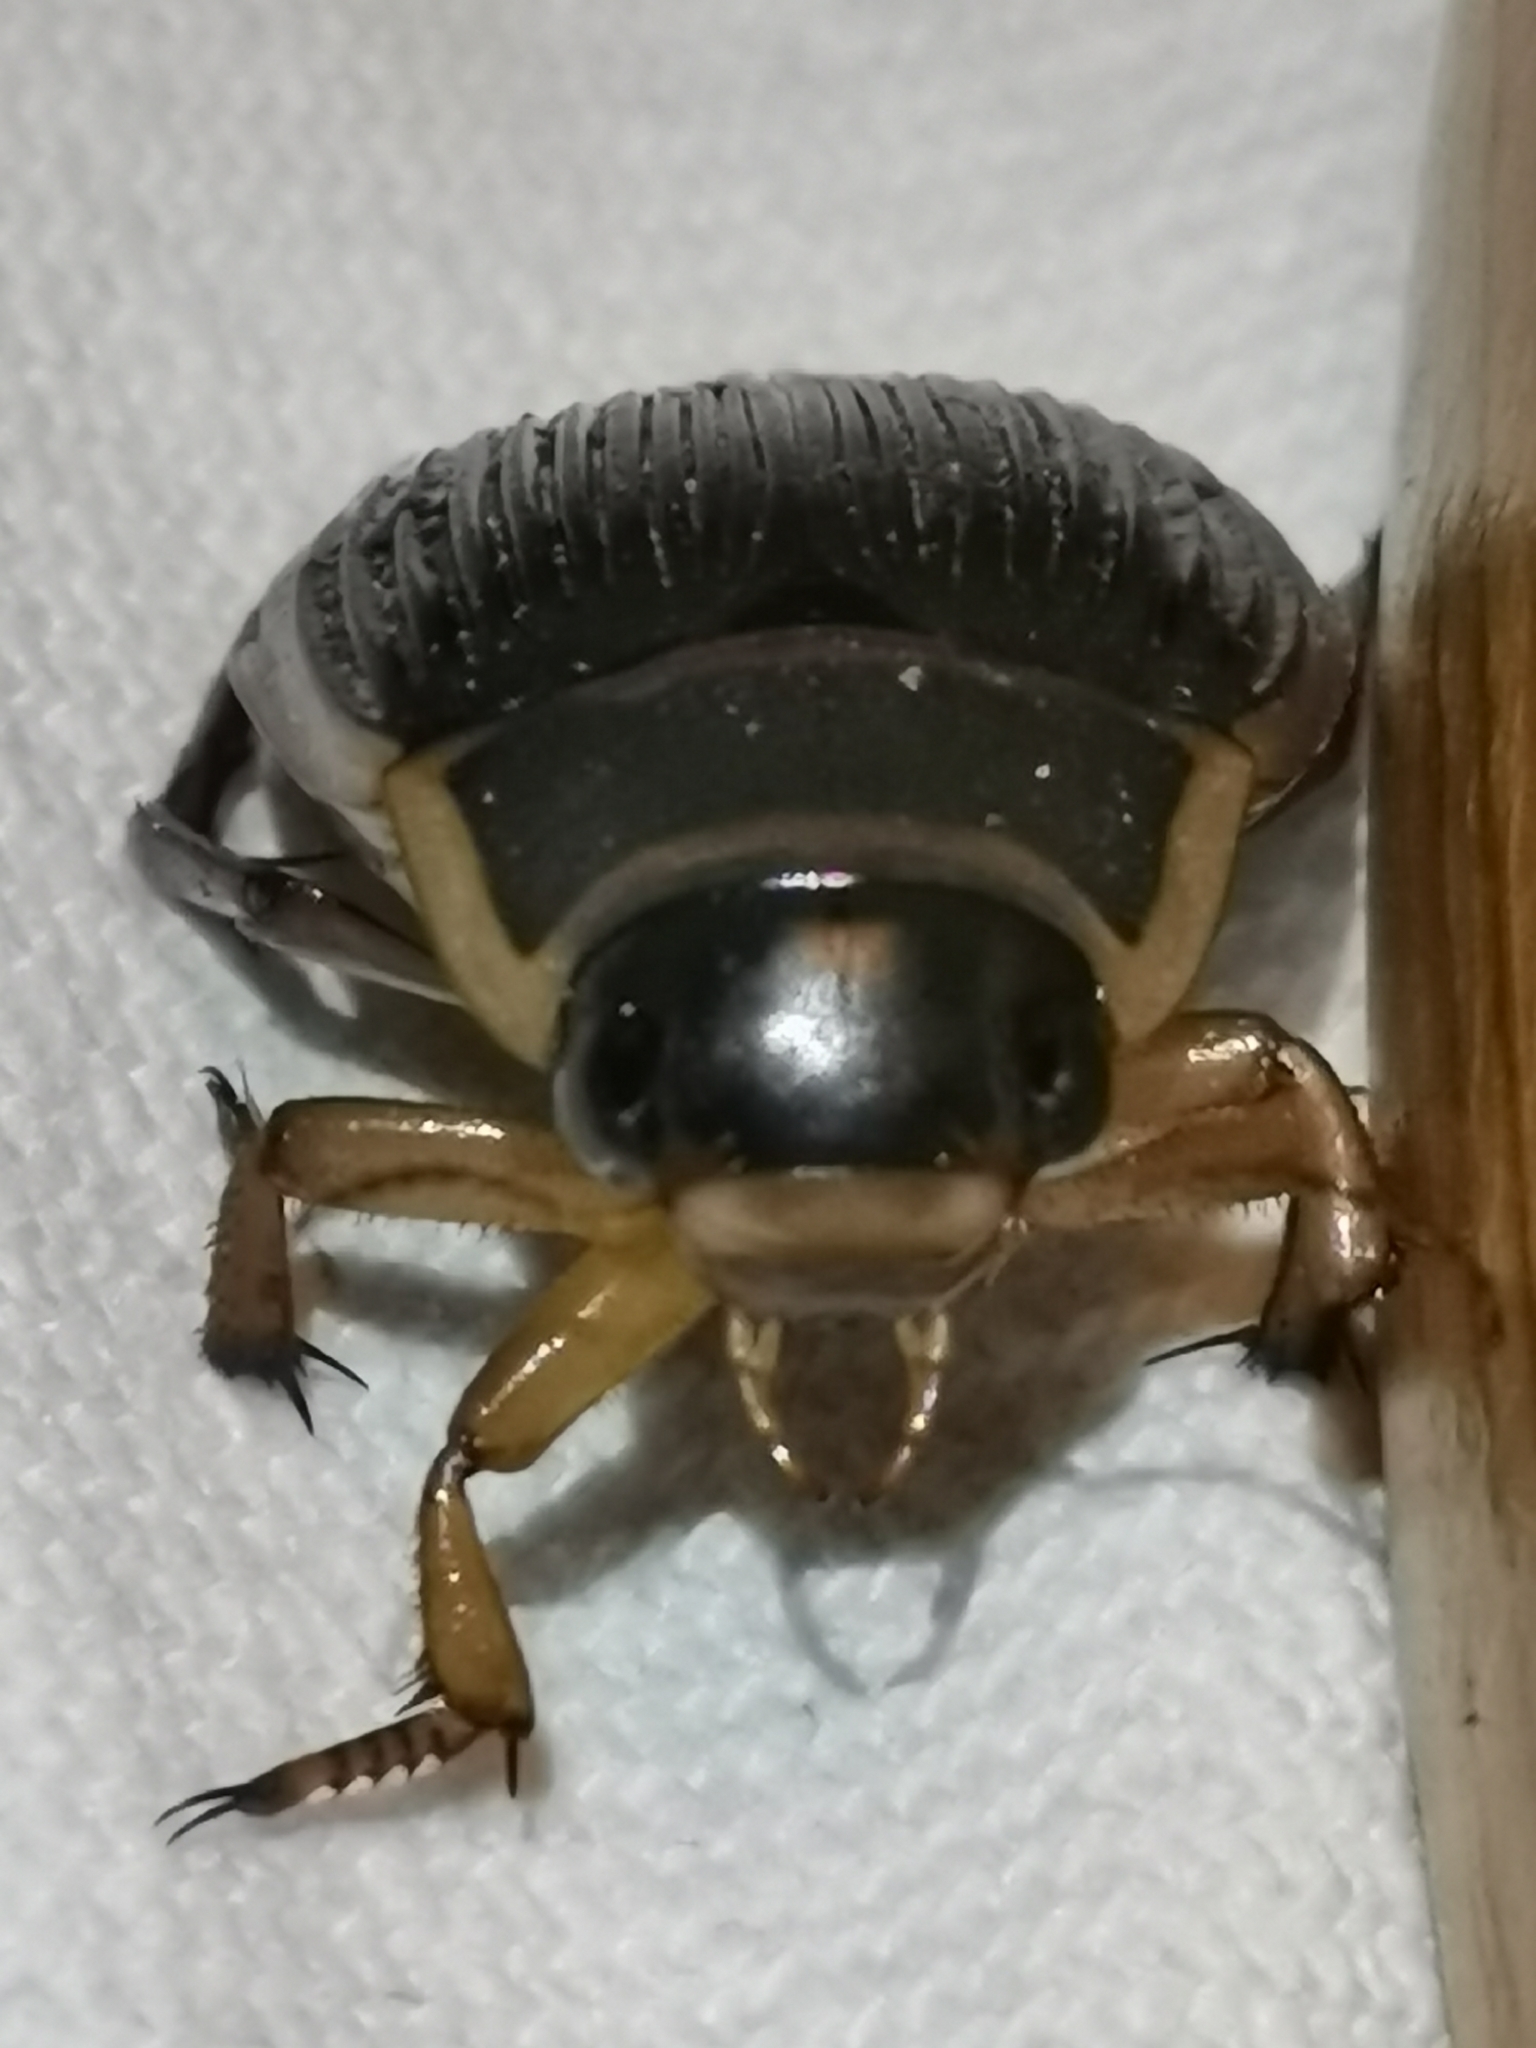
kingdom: Animalia
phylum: Arthropoda
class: Insecta
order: Coleoptera
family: Dytiscidae
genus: Dytiscus
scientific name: Dytiscus marginalis
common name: Great water beetle
